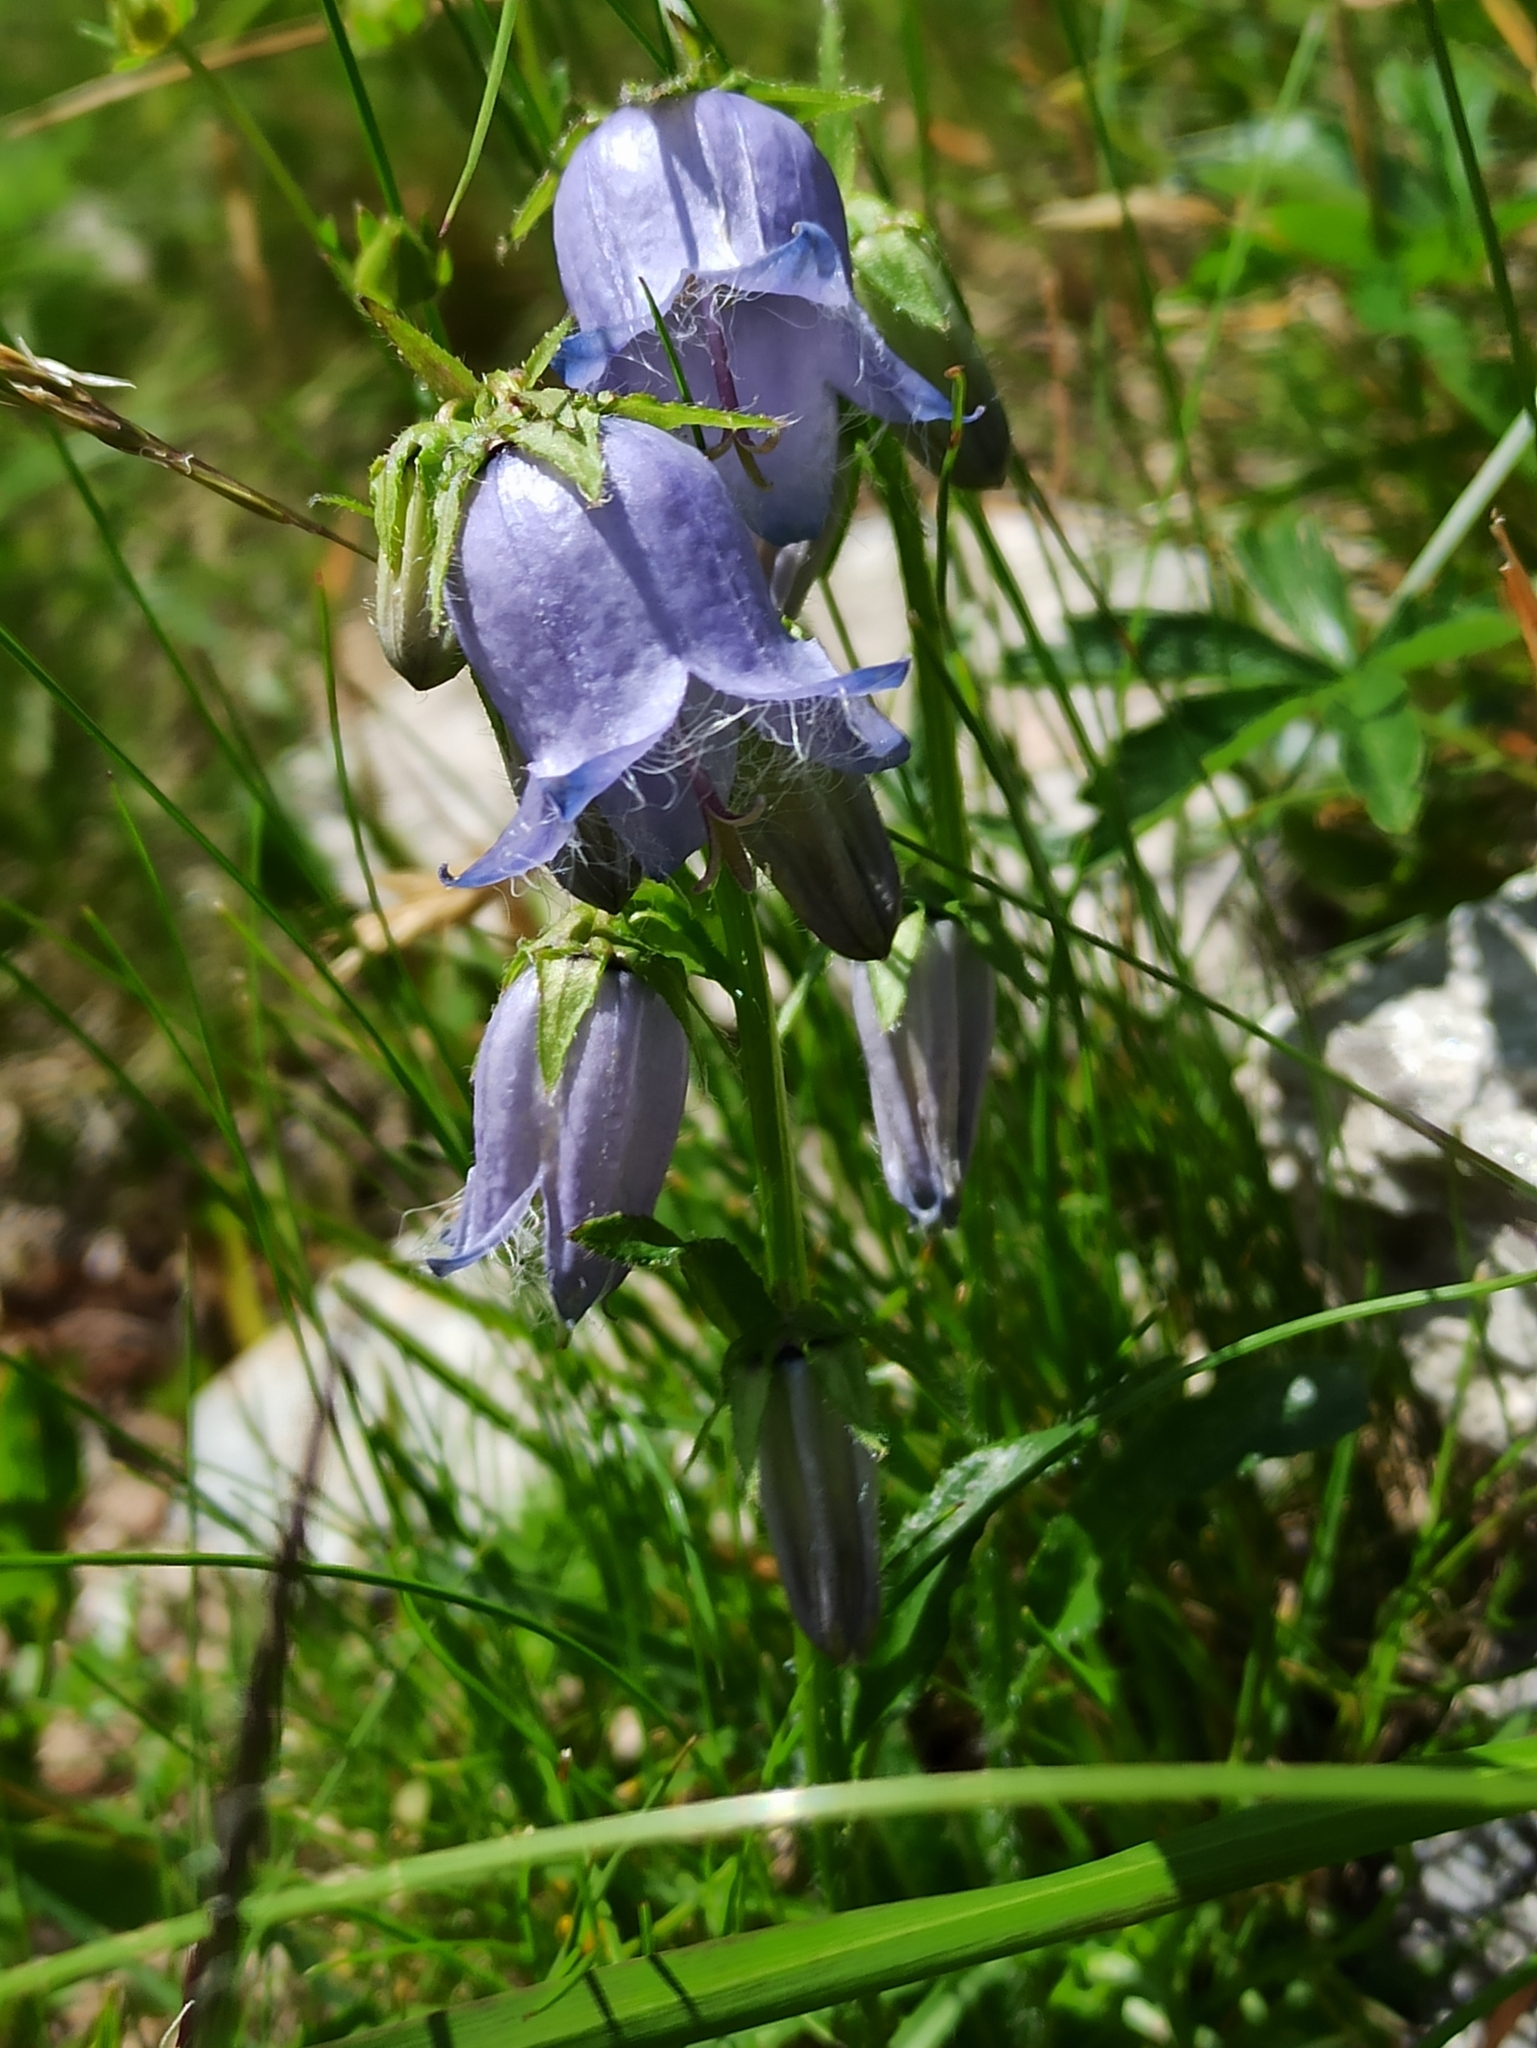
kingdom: Plantae
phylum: Tracheophyta
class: Magnoliopsida
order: Asterales
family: Campanulaceae
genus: Campanula
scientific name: Campanula barbata
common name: Bearded bellflower
